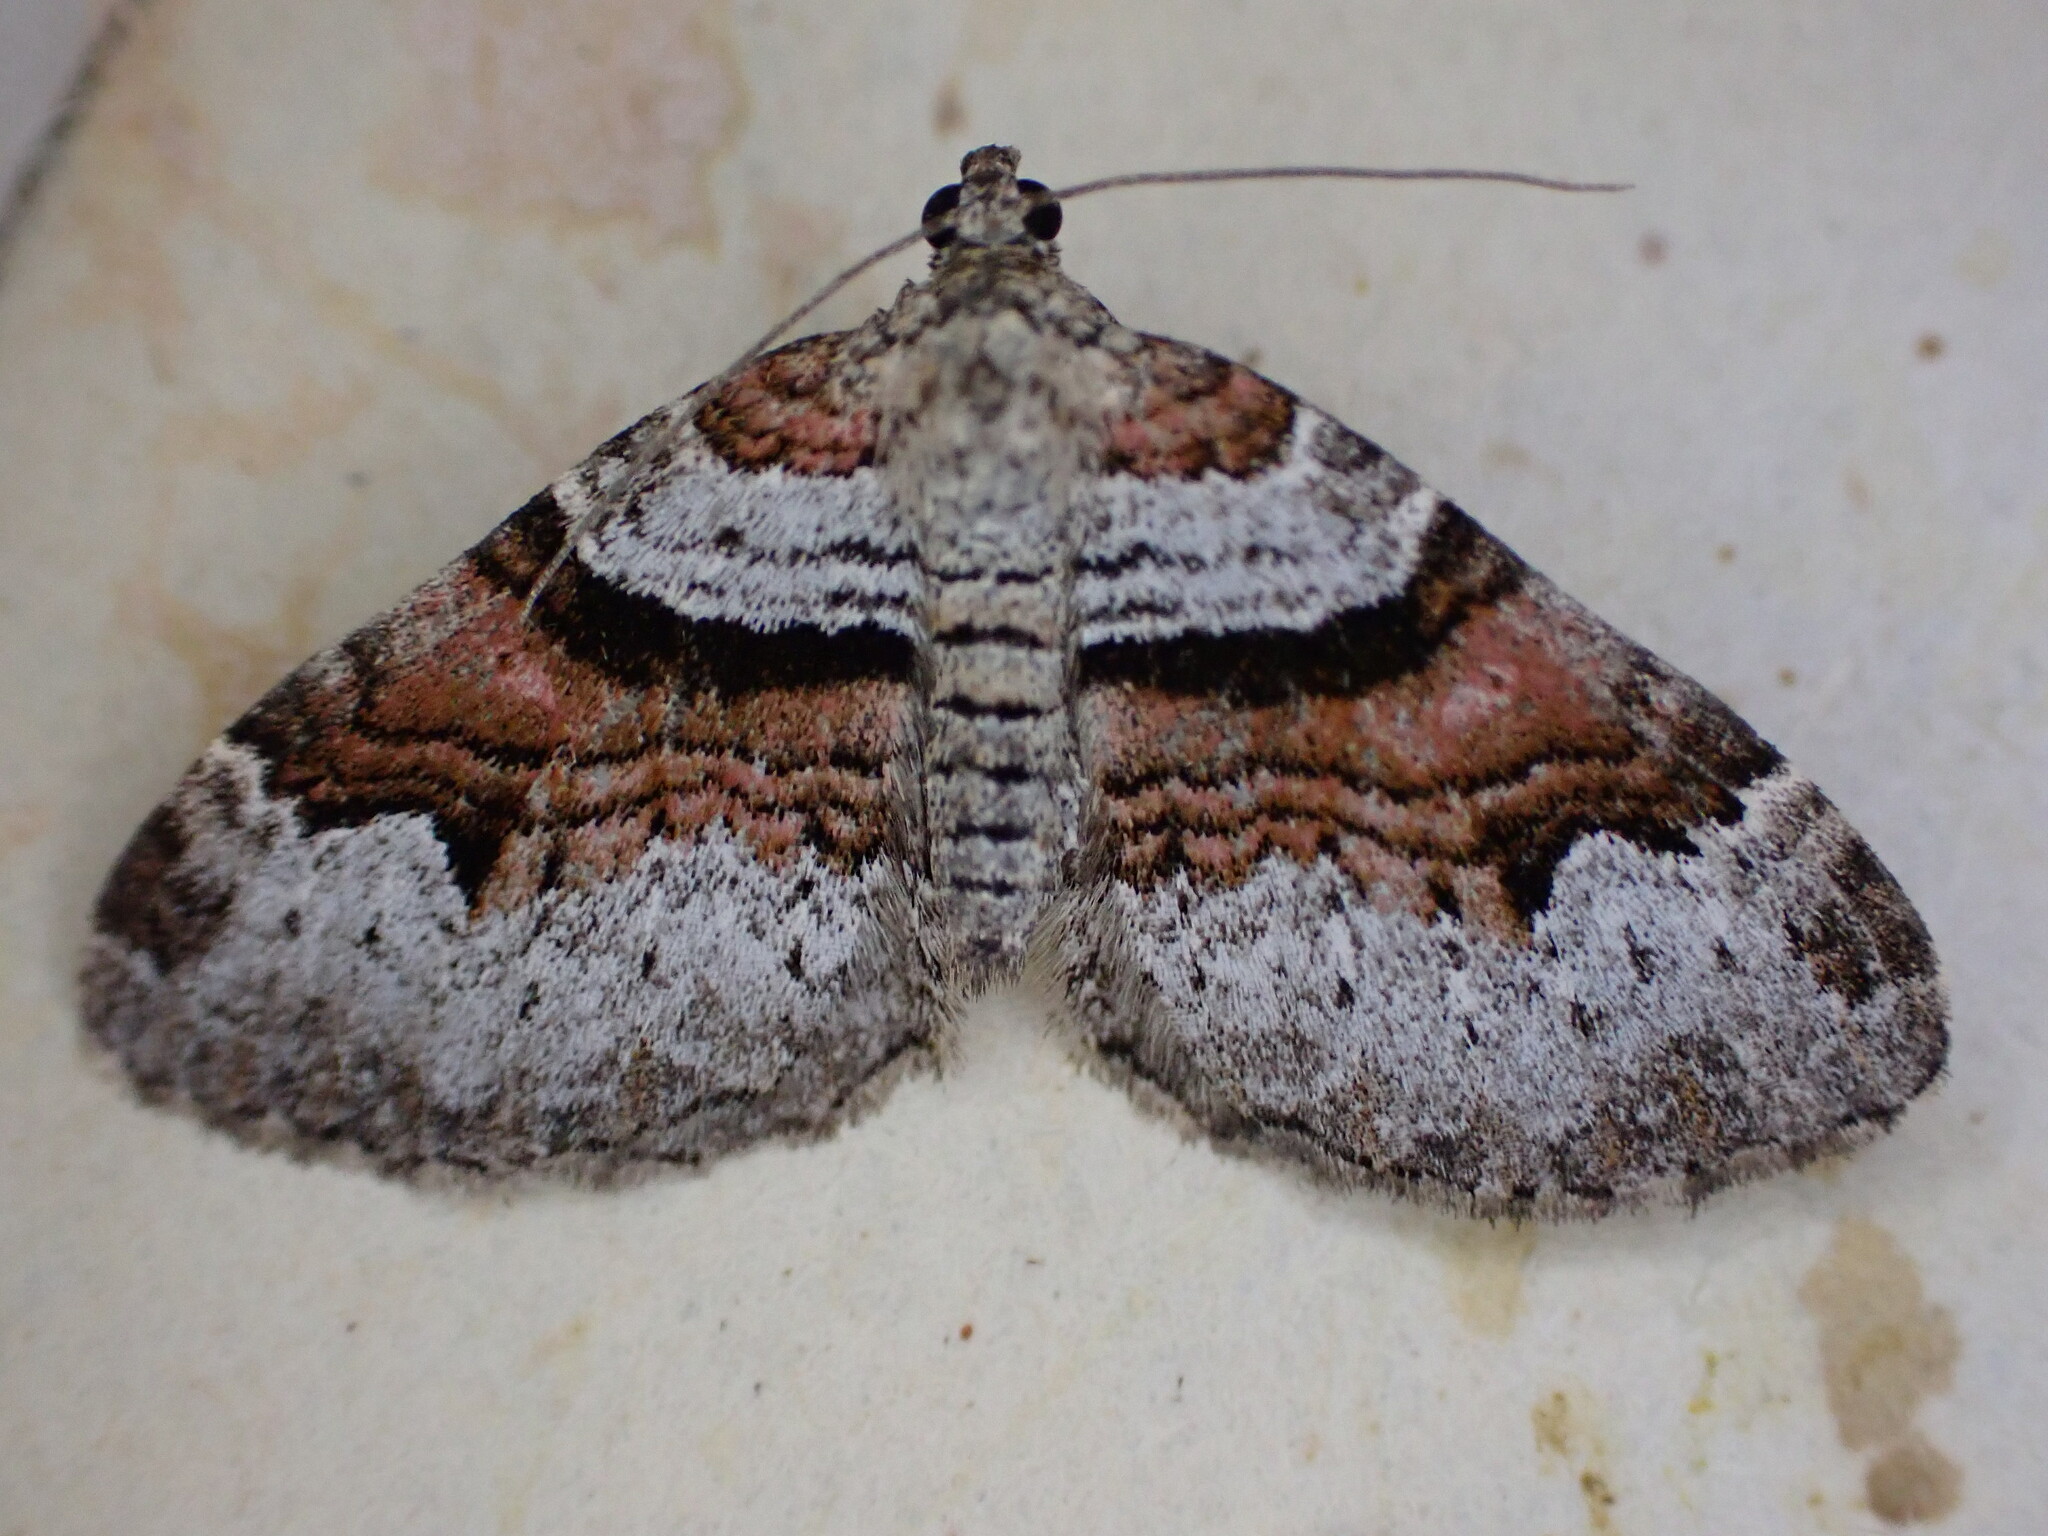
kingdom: Animalia
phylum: Arthropoda
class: Insecta
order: Lepidoptera
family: Geometridae
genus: Xanthorhoe
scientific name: Xanthorhoe designata
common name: Flame carpet
